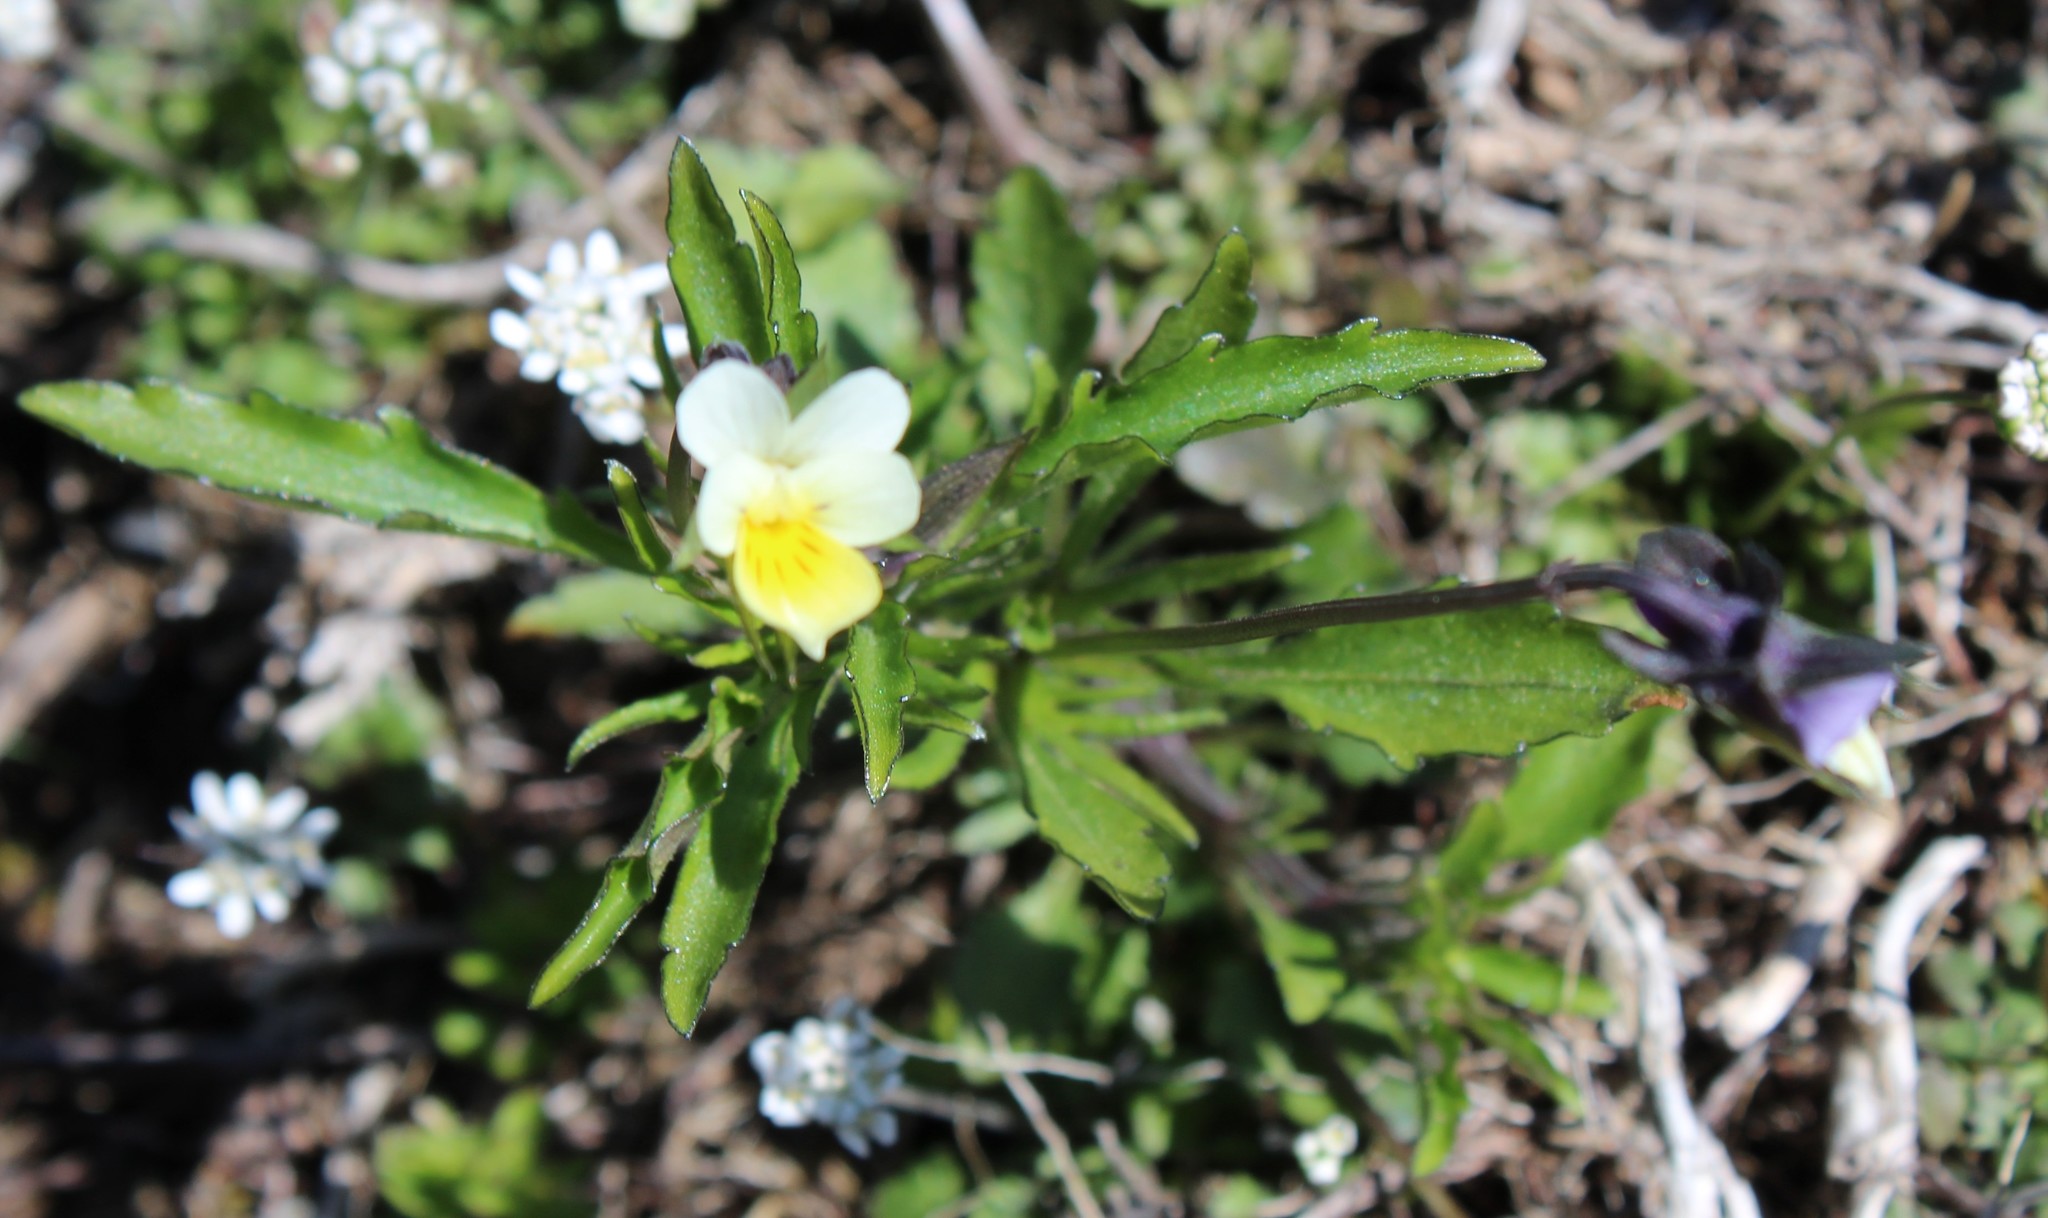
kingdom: Plantae
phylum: Tracheophyta
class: Magnoliopsida
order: Malpighiales
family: Violaceae
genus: Viola
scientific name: Viola arvensis
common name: Field pansy
